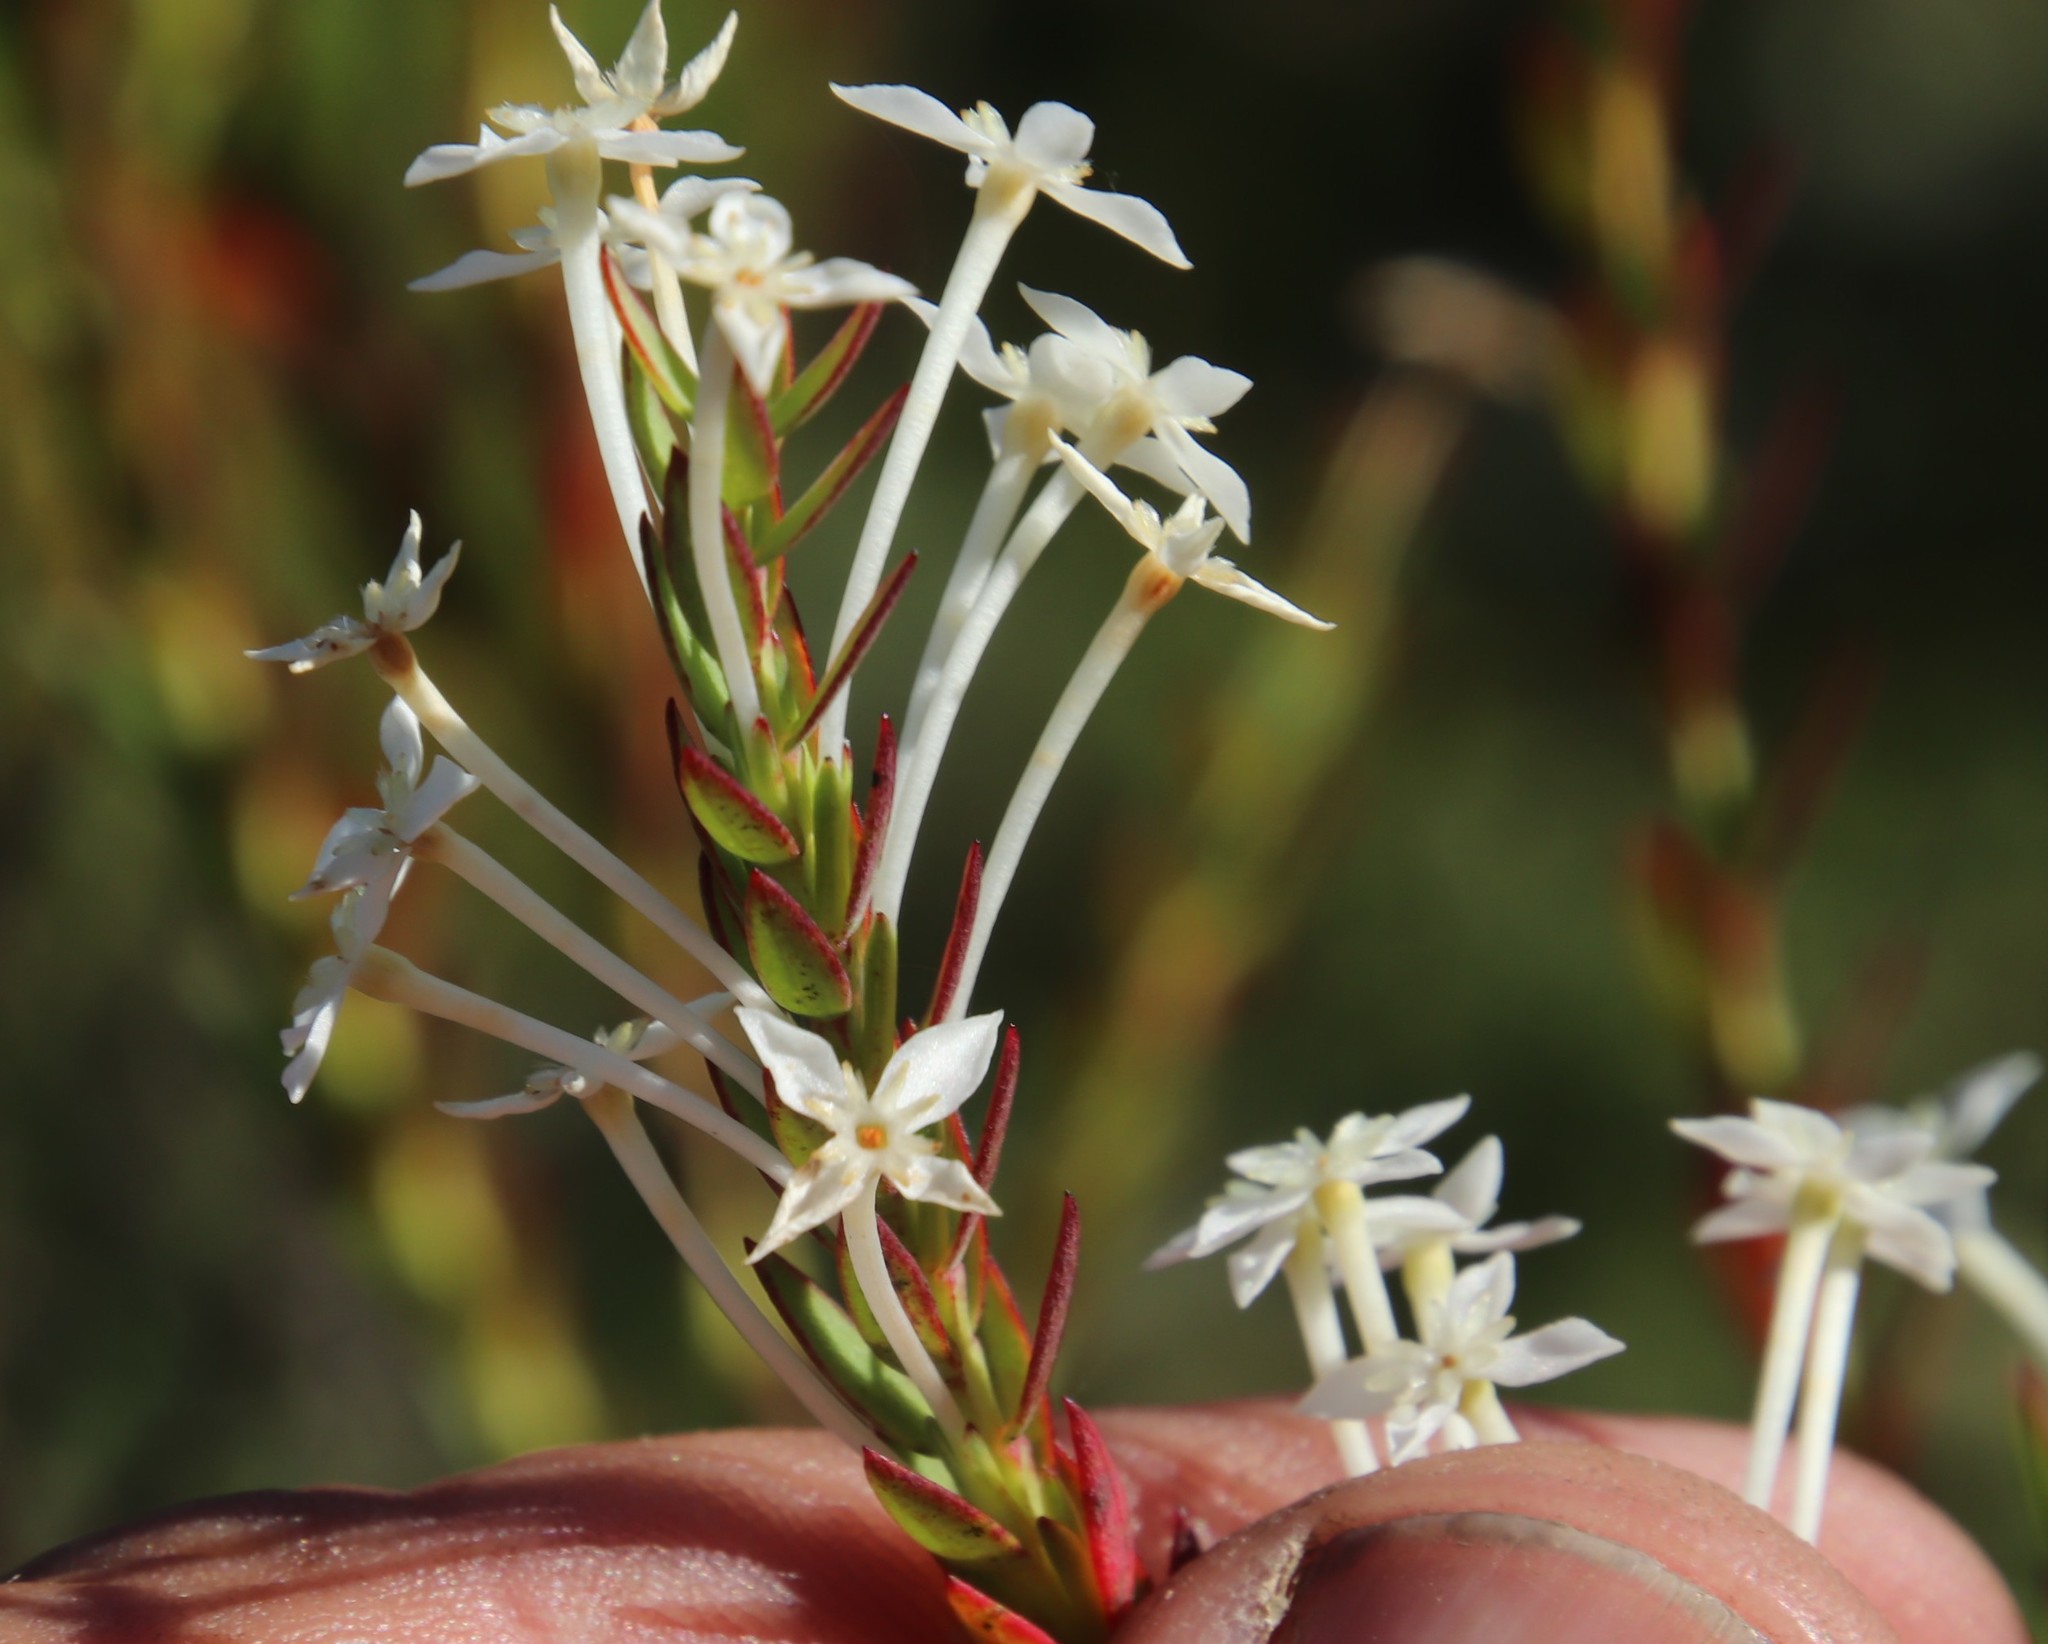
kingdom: Plantae
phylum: Tracheophyta
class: Magnoliopsida
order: Malvales
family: Thymelaeaceae
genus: Struthiola
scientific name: Struthiola myrsinites
